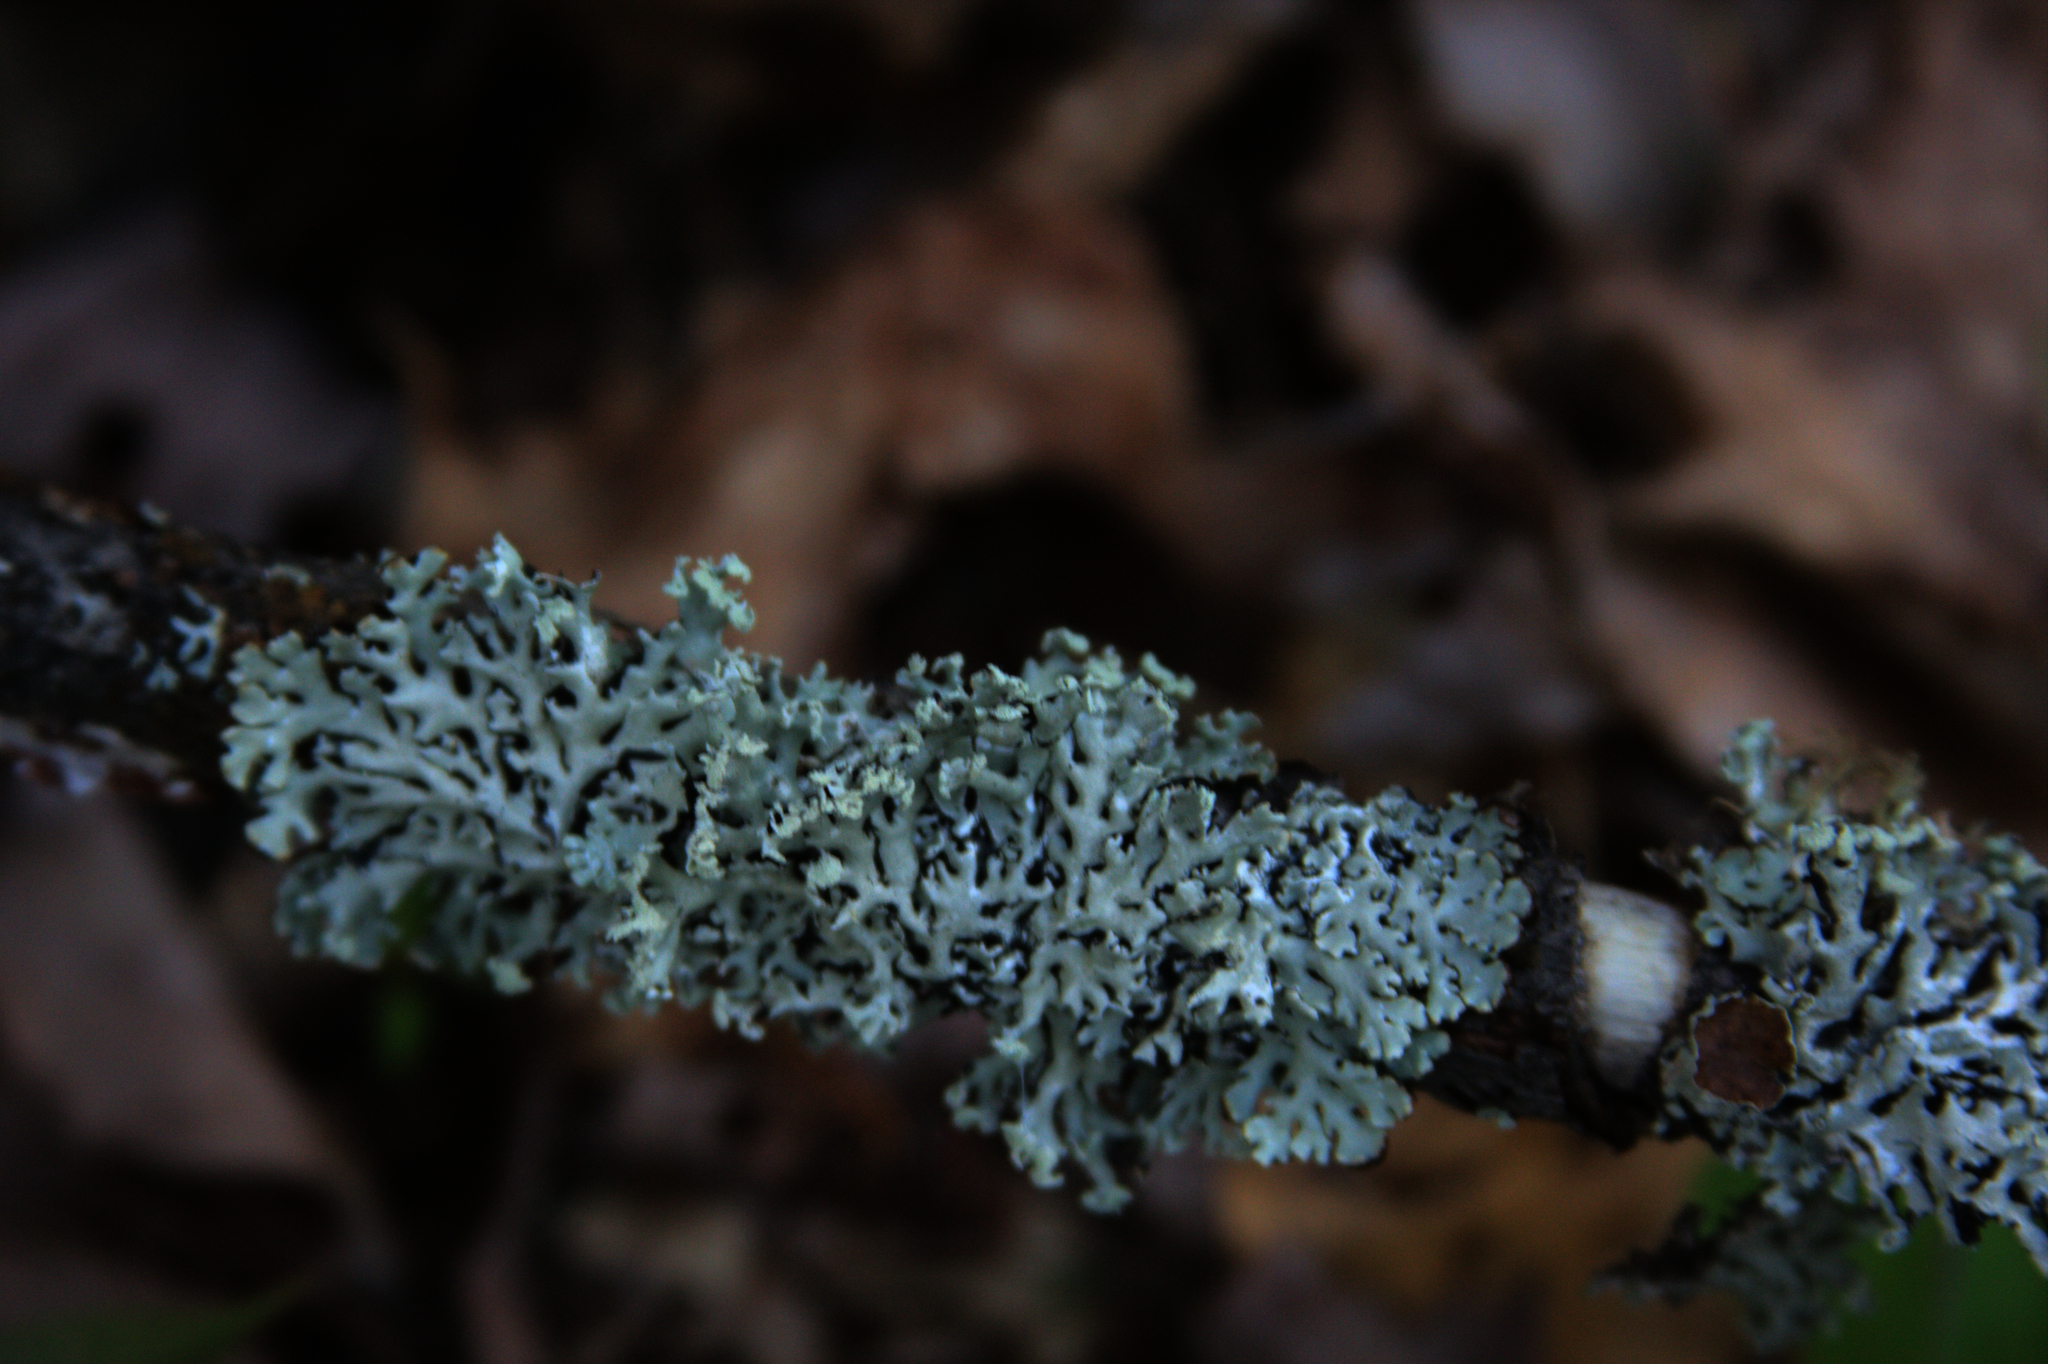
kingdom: Fungi
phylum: Ascomycota
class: Lecanoromycetes
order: Lecanorales
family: Parmeliaceae
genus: Hypogymnia
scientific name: Hypogymnia physodes
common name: Dark crottle
